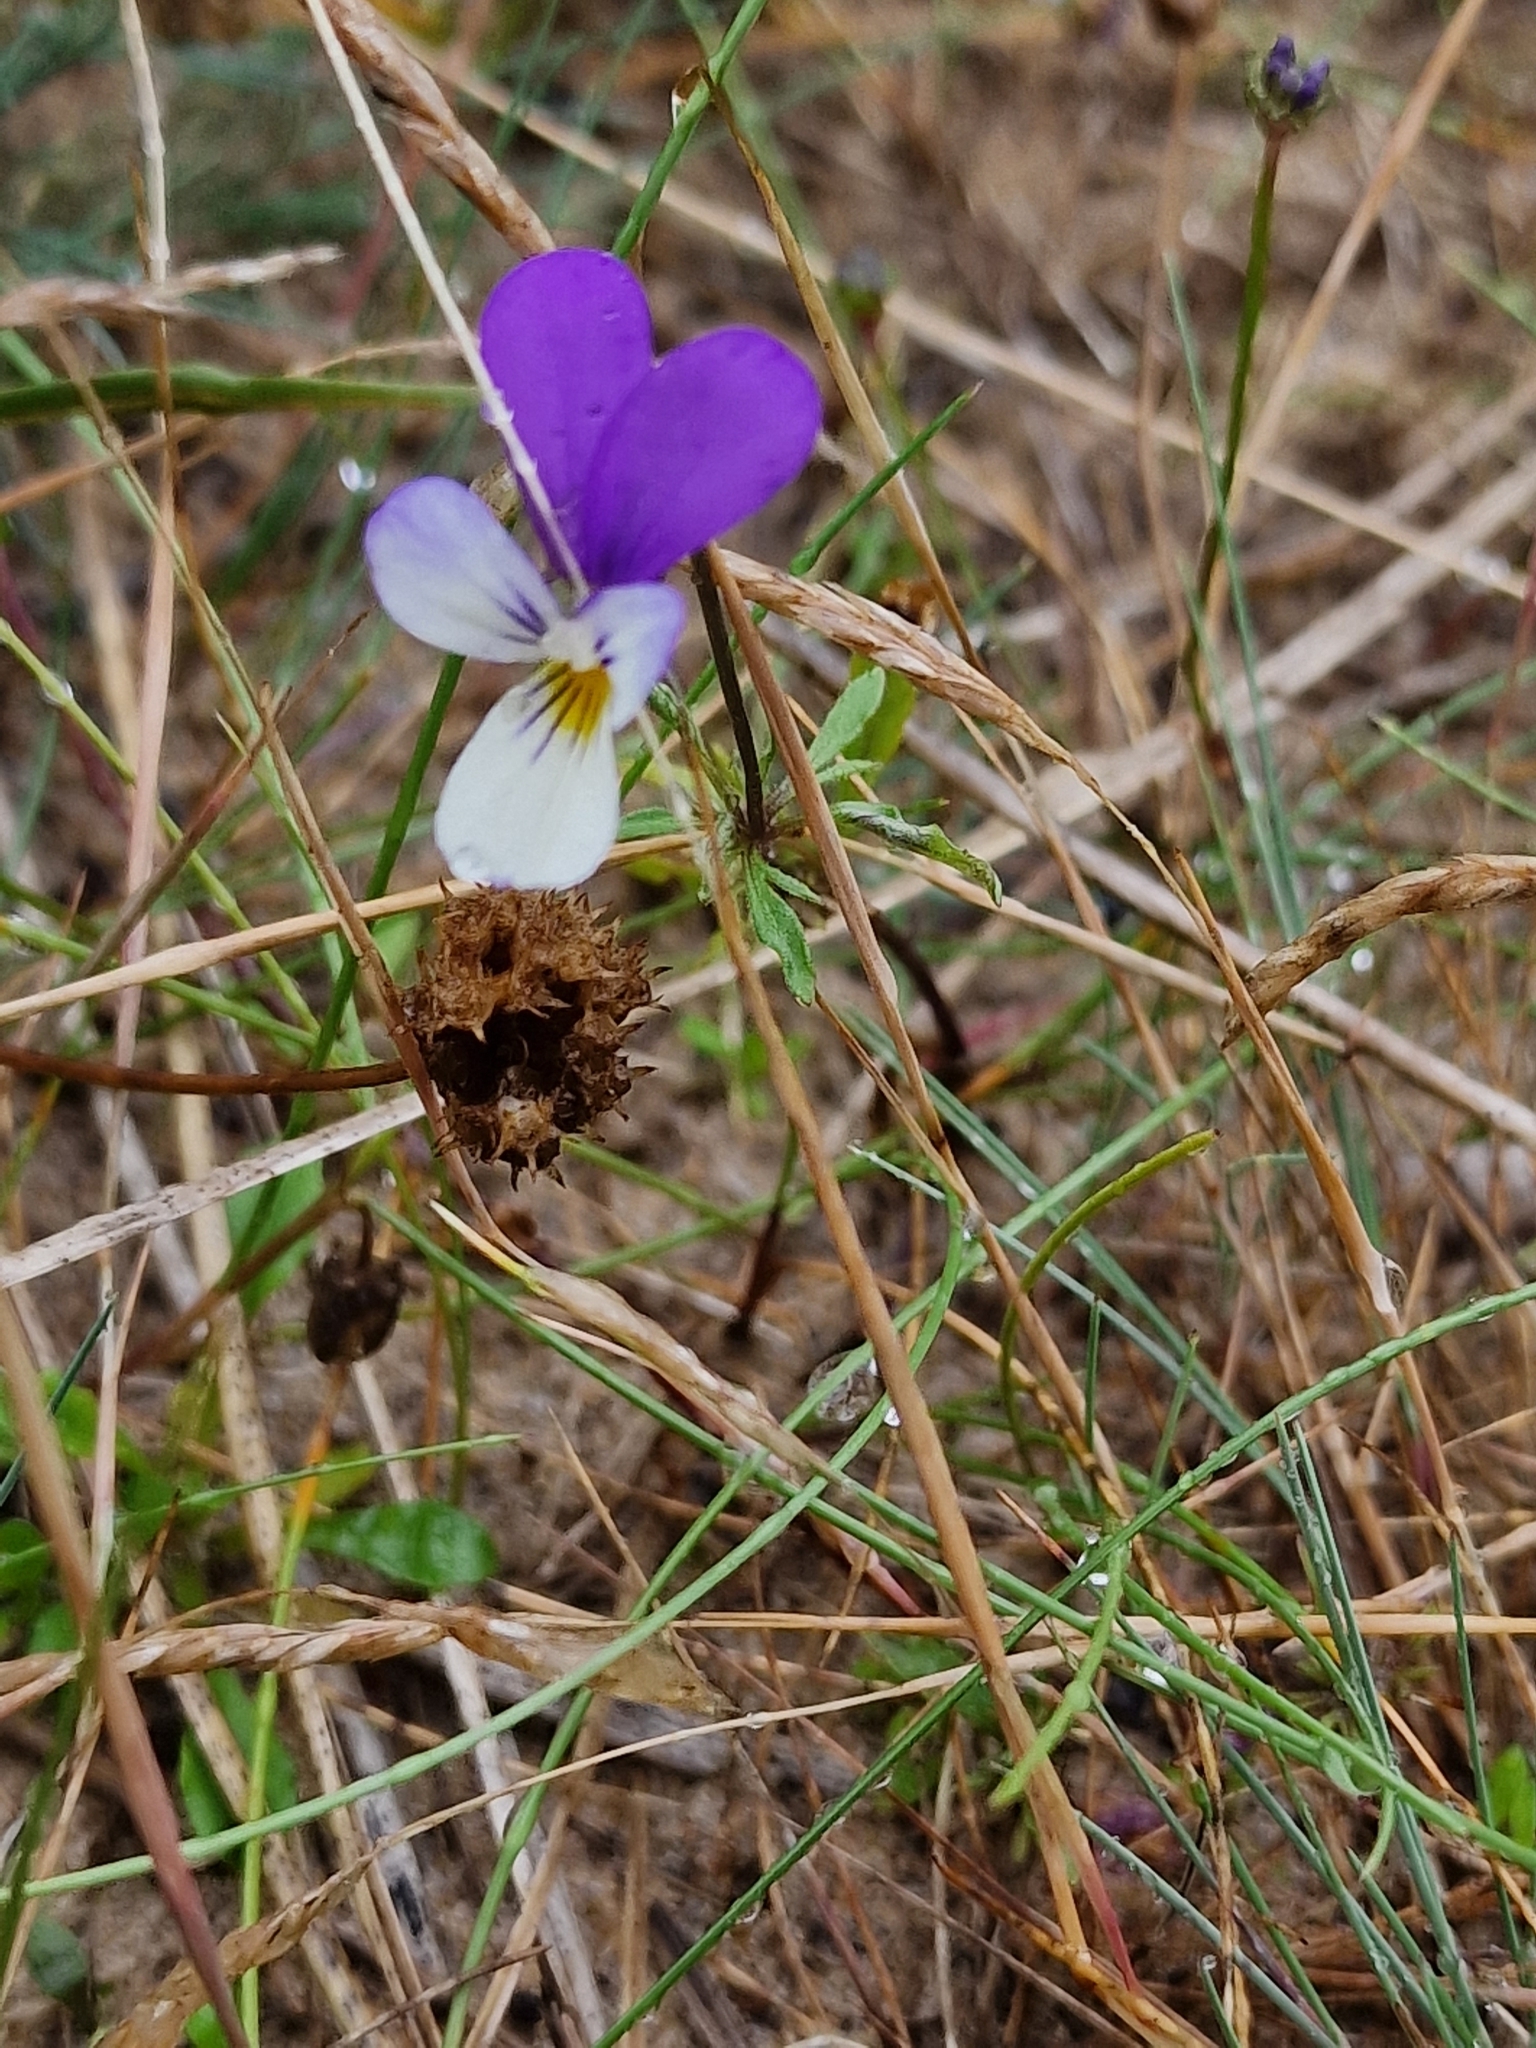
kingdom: Plantae
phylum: Tracheophyta
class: Magnoliopsida
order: Malpighiales
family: Violaceae
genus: Viola
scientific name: Viola tricolor
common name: Pansy
